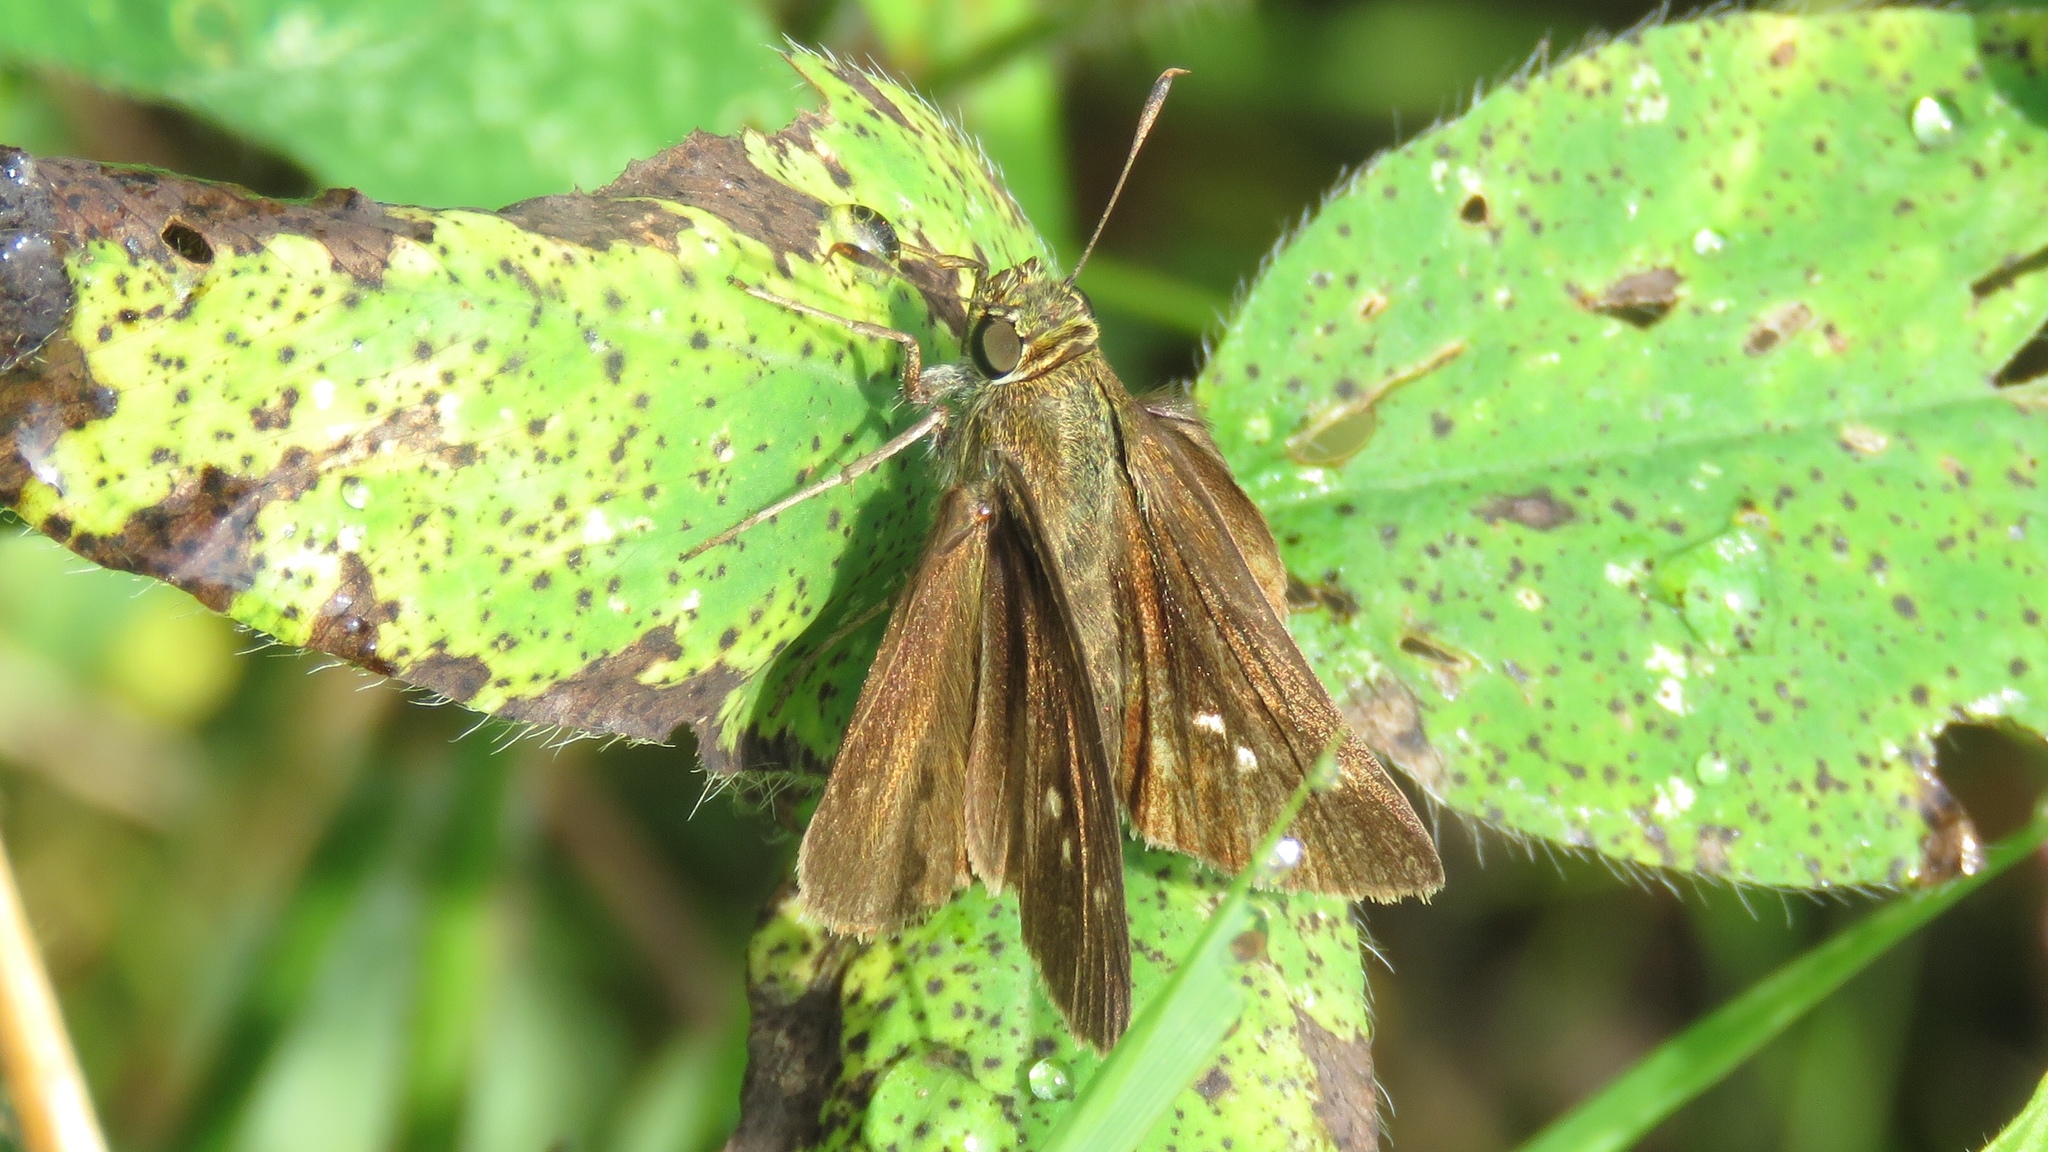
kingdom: Animalia
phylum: Arthropoda
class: Insecta
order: Lepidoptera
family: Hesperiidae
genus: Euphyes
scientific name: Euphyes vestris
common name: Dun skipper
